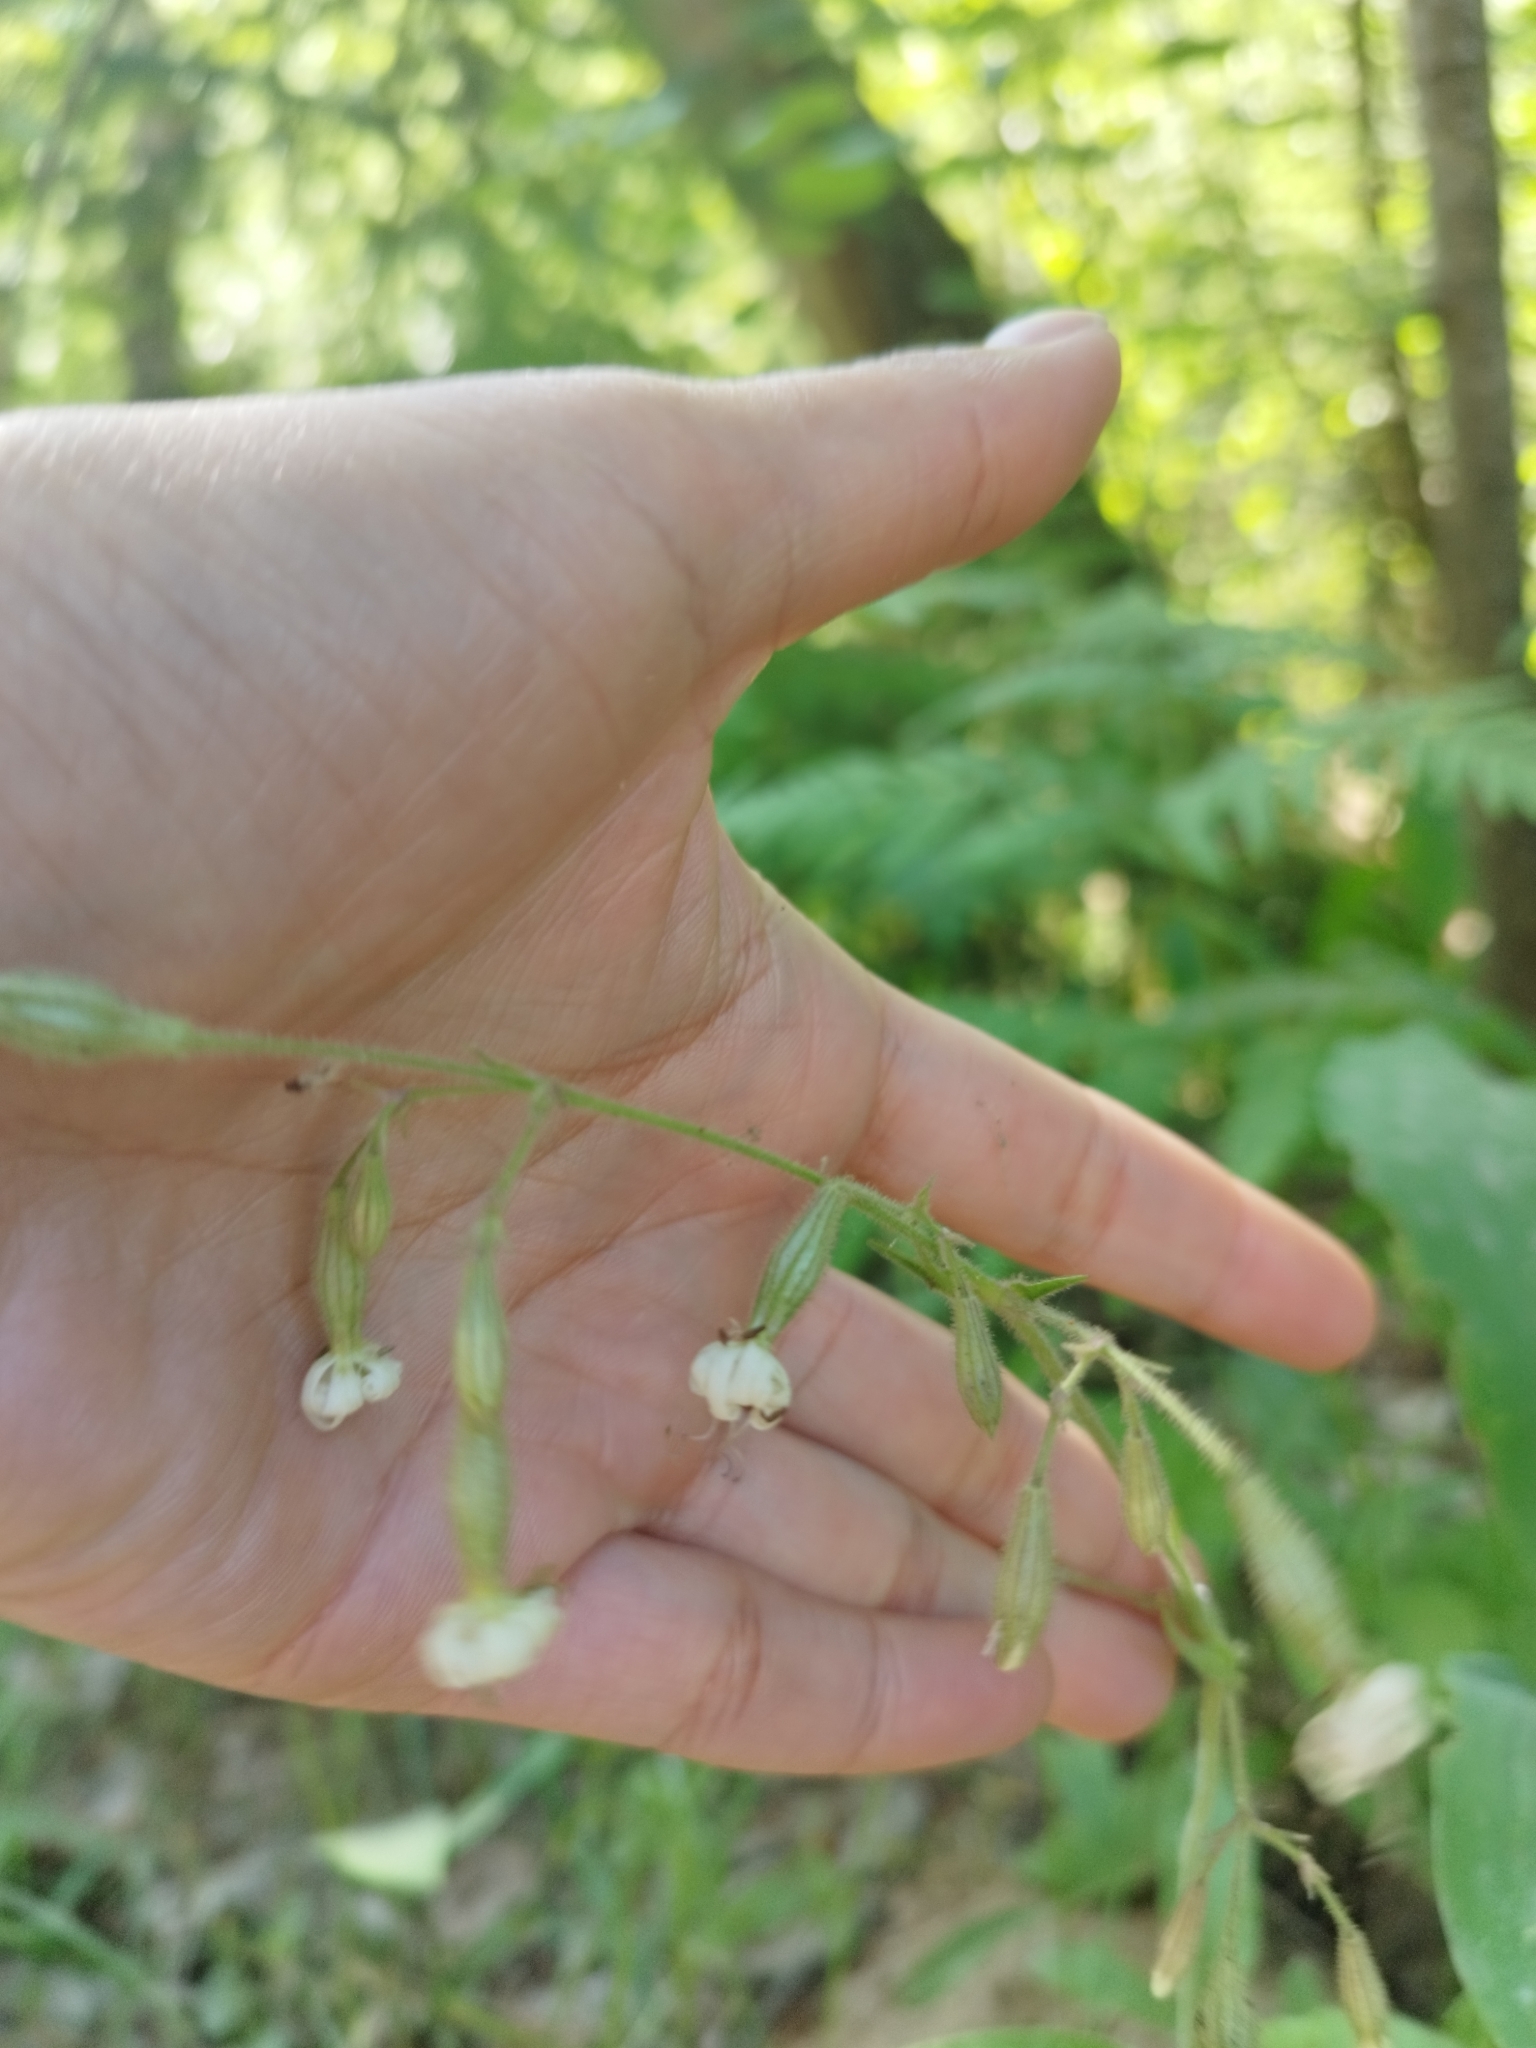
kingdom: Plantae
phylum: Tracheophyta
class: Magnoliopsida
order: Caryophyllales
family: Caryophyllaceae
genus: Silene
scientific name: Silene nutans
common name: Nottingham catchfly
